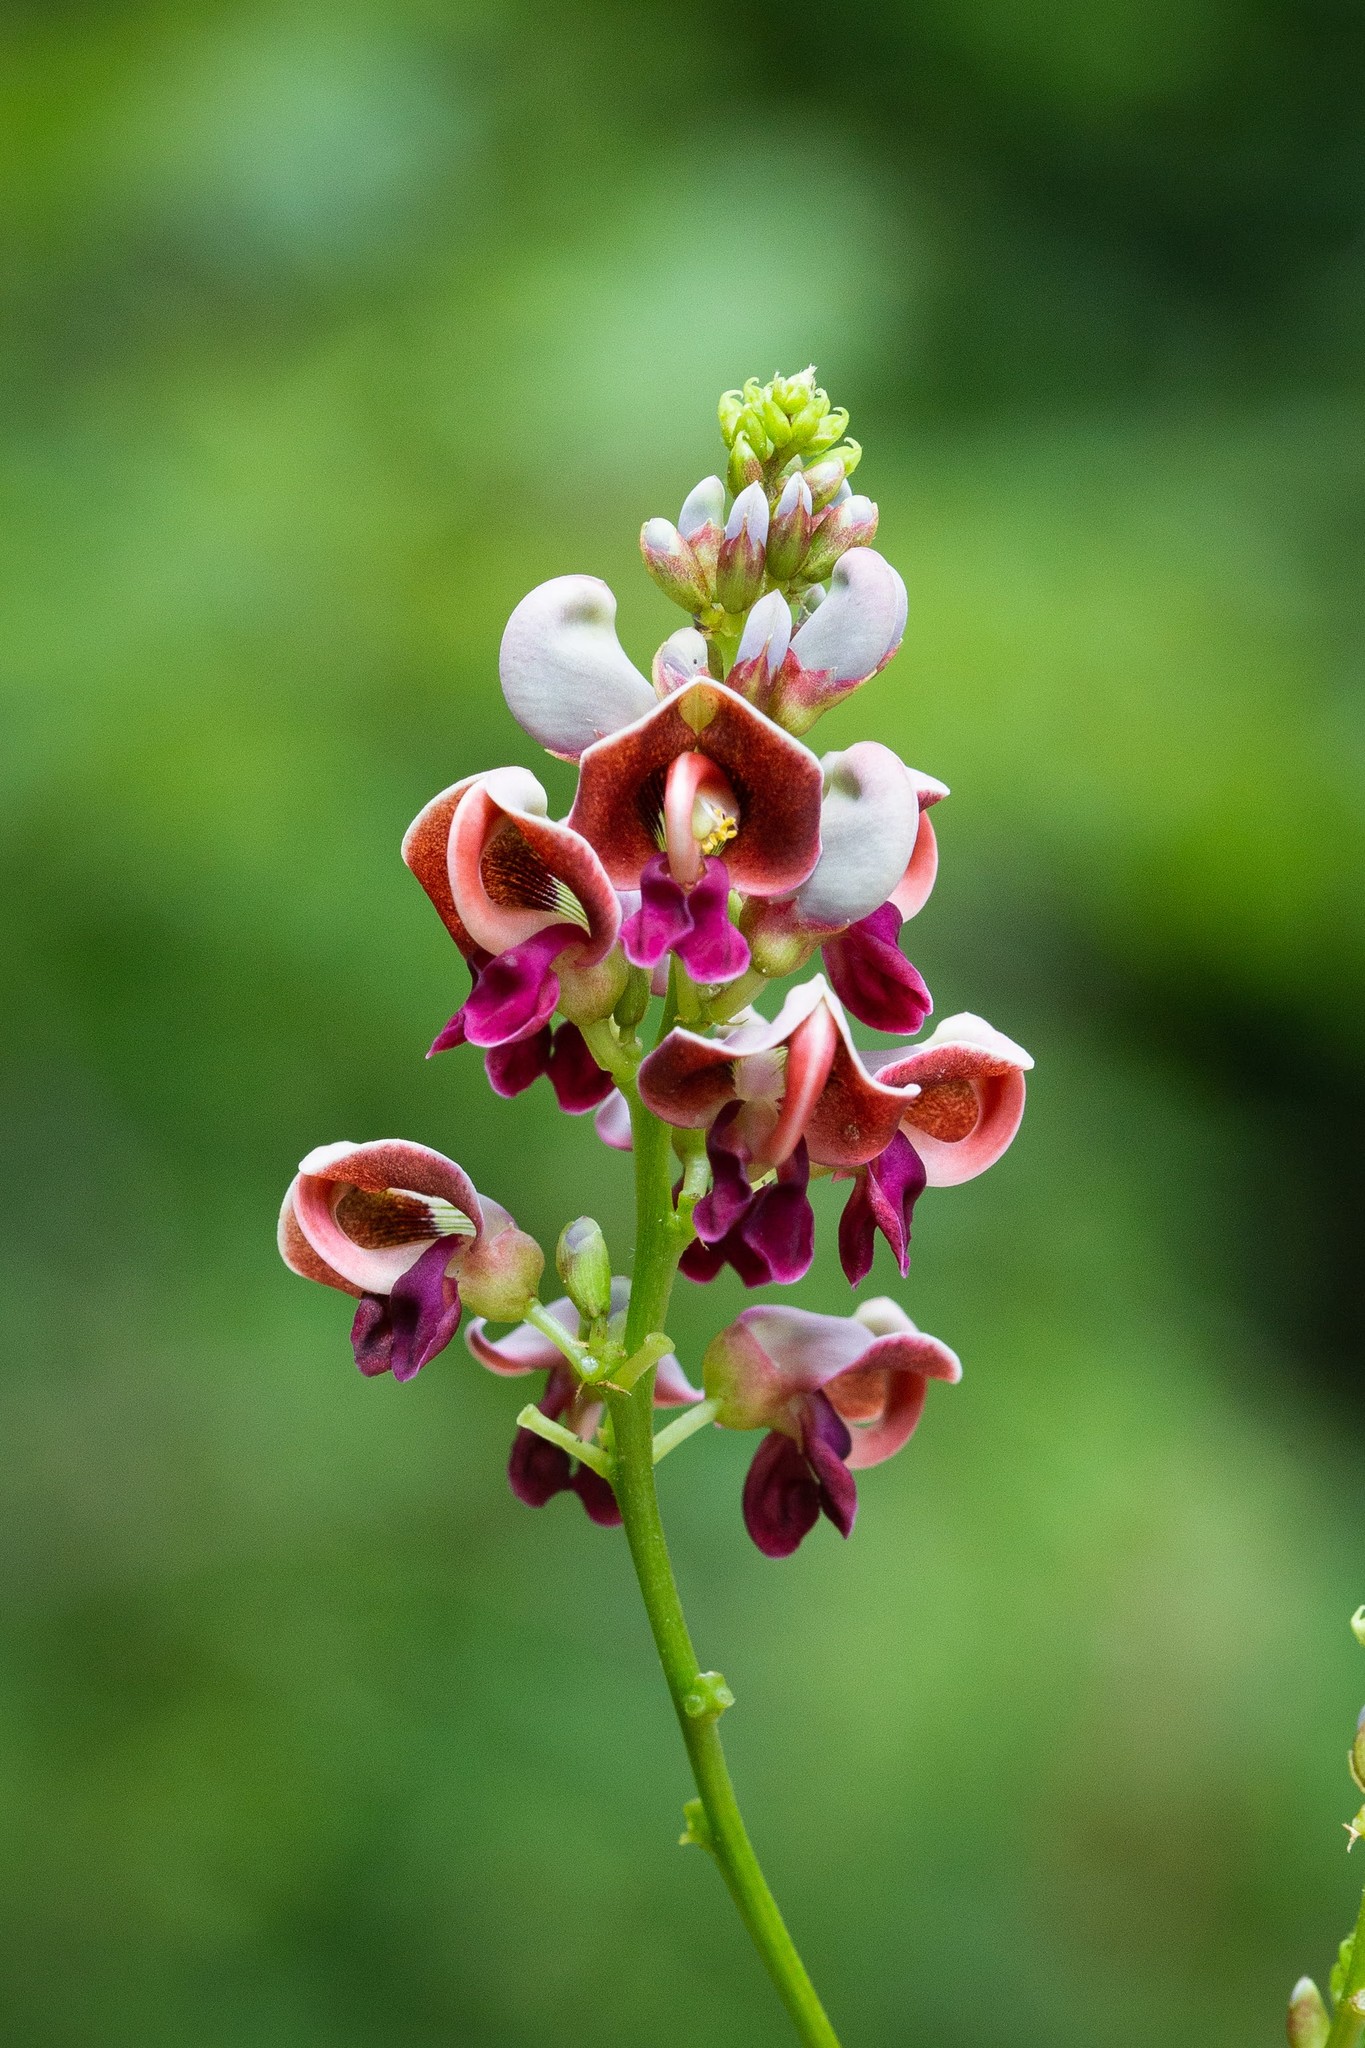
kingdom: Plantae
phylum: Tracheophyta
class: Magnoliopsida
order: Fabales
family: Fabaceae
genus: Apios
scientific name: Apios americana
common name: American potato-bean
